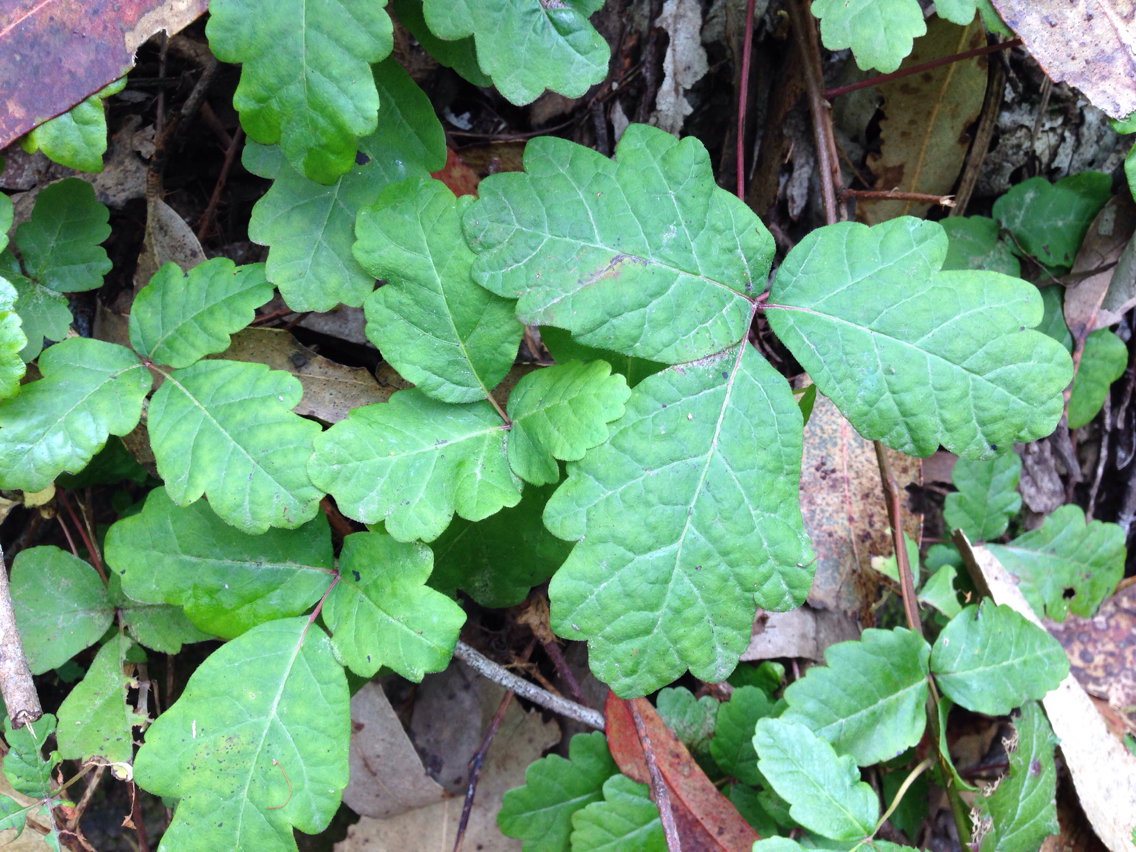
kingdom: Plantae
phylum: Tracheophyta
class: Magnoliopsida
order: Sapindales
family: Anacardiaceae
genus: Toxicodendron
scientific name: Toxicodendron diversilobum
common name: Pacific poison-oak
